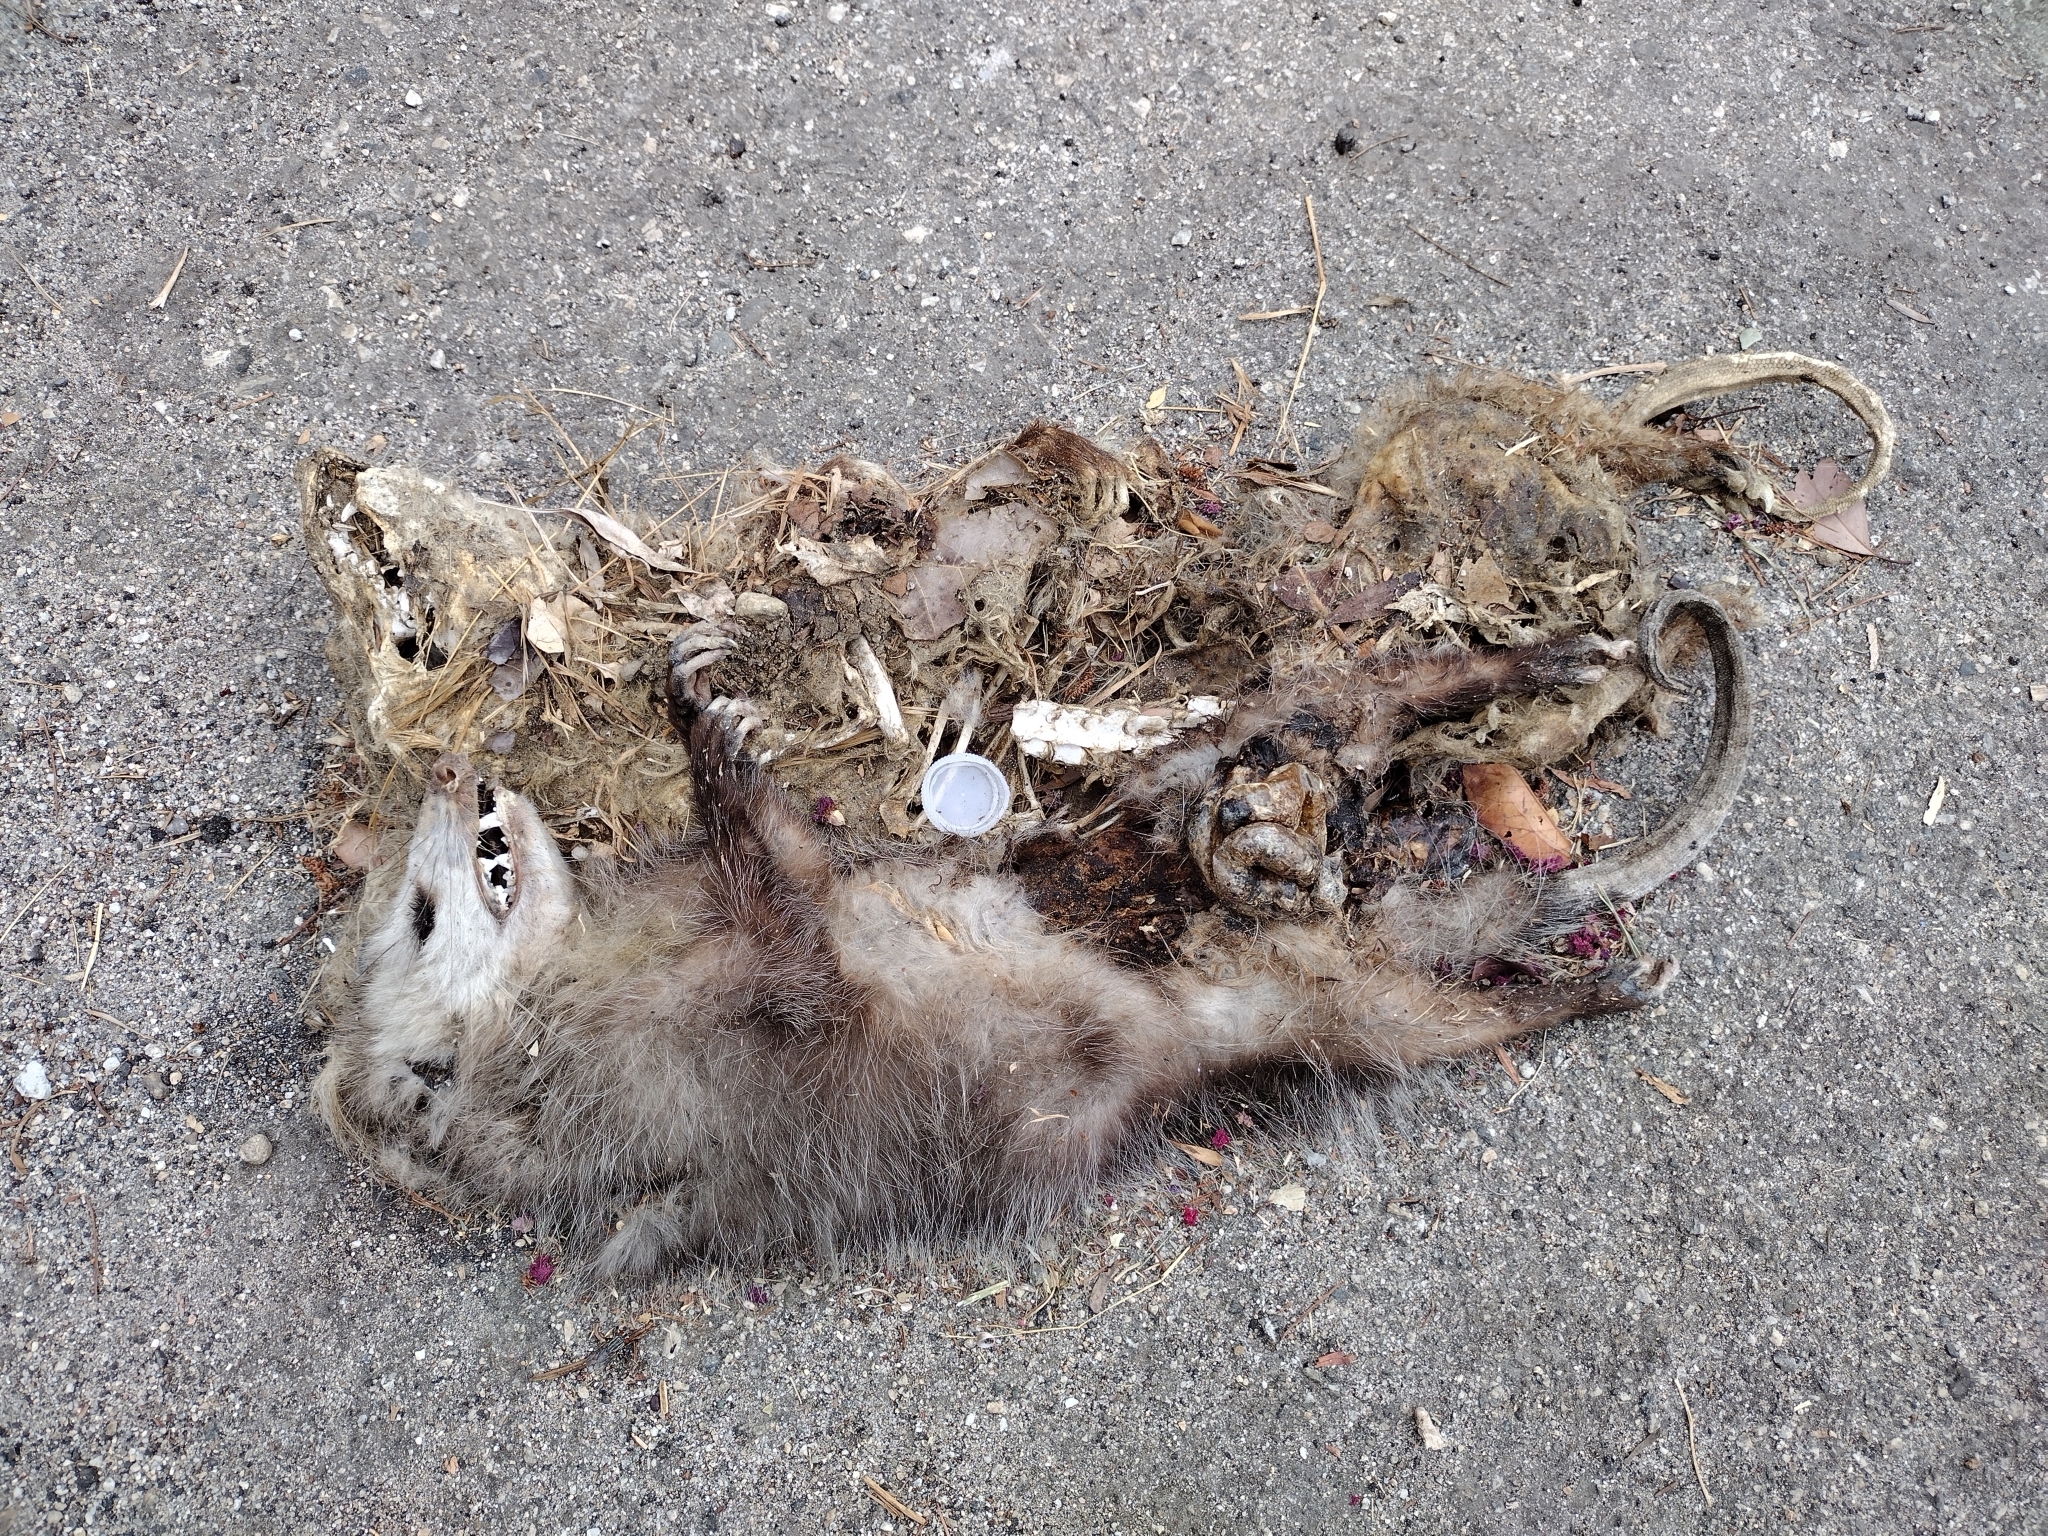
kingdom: Animalia
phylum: Chordata
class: Mammalia
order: Didelphimorphia
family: Didelphidae
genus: Didelphis
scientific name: Didelphis virginiana
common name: Virginia opossum
